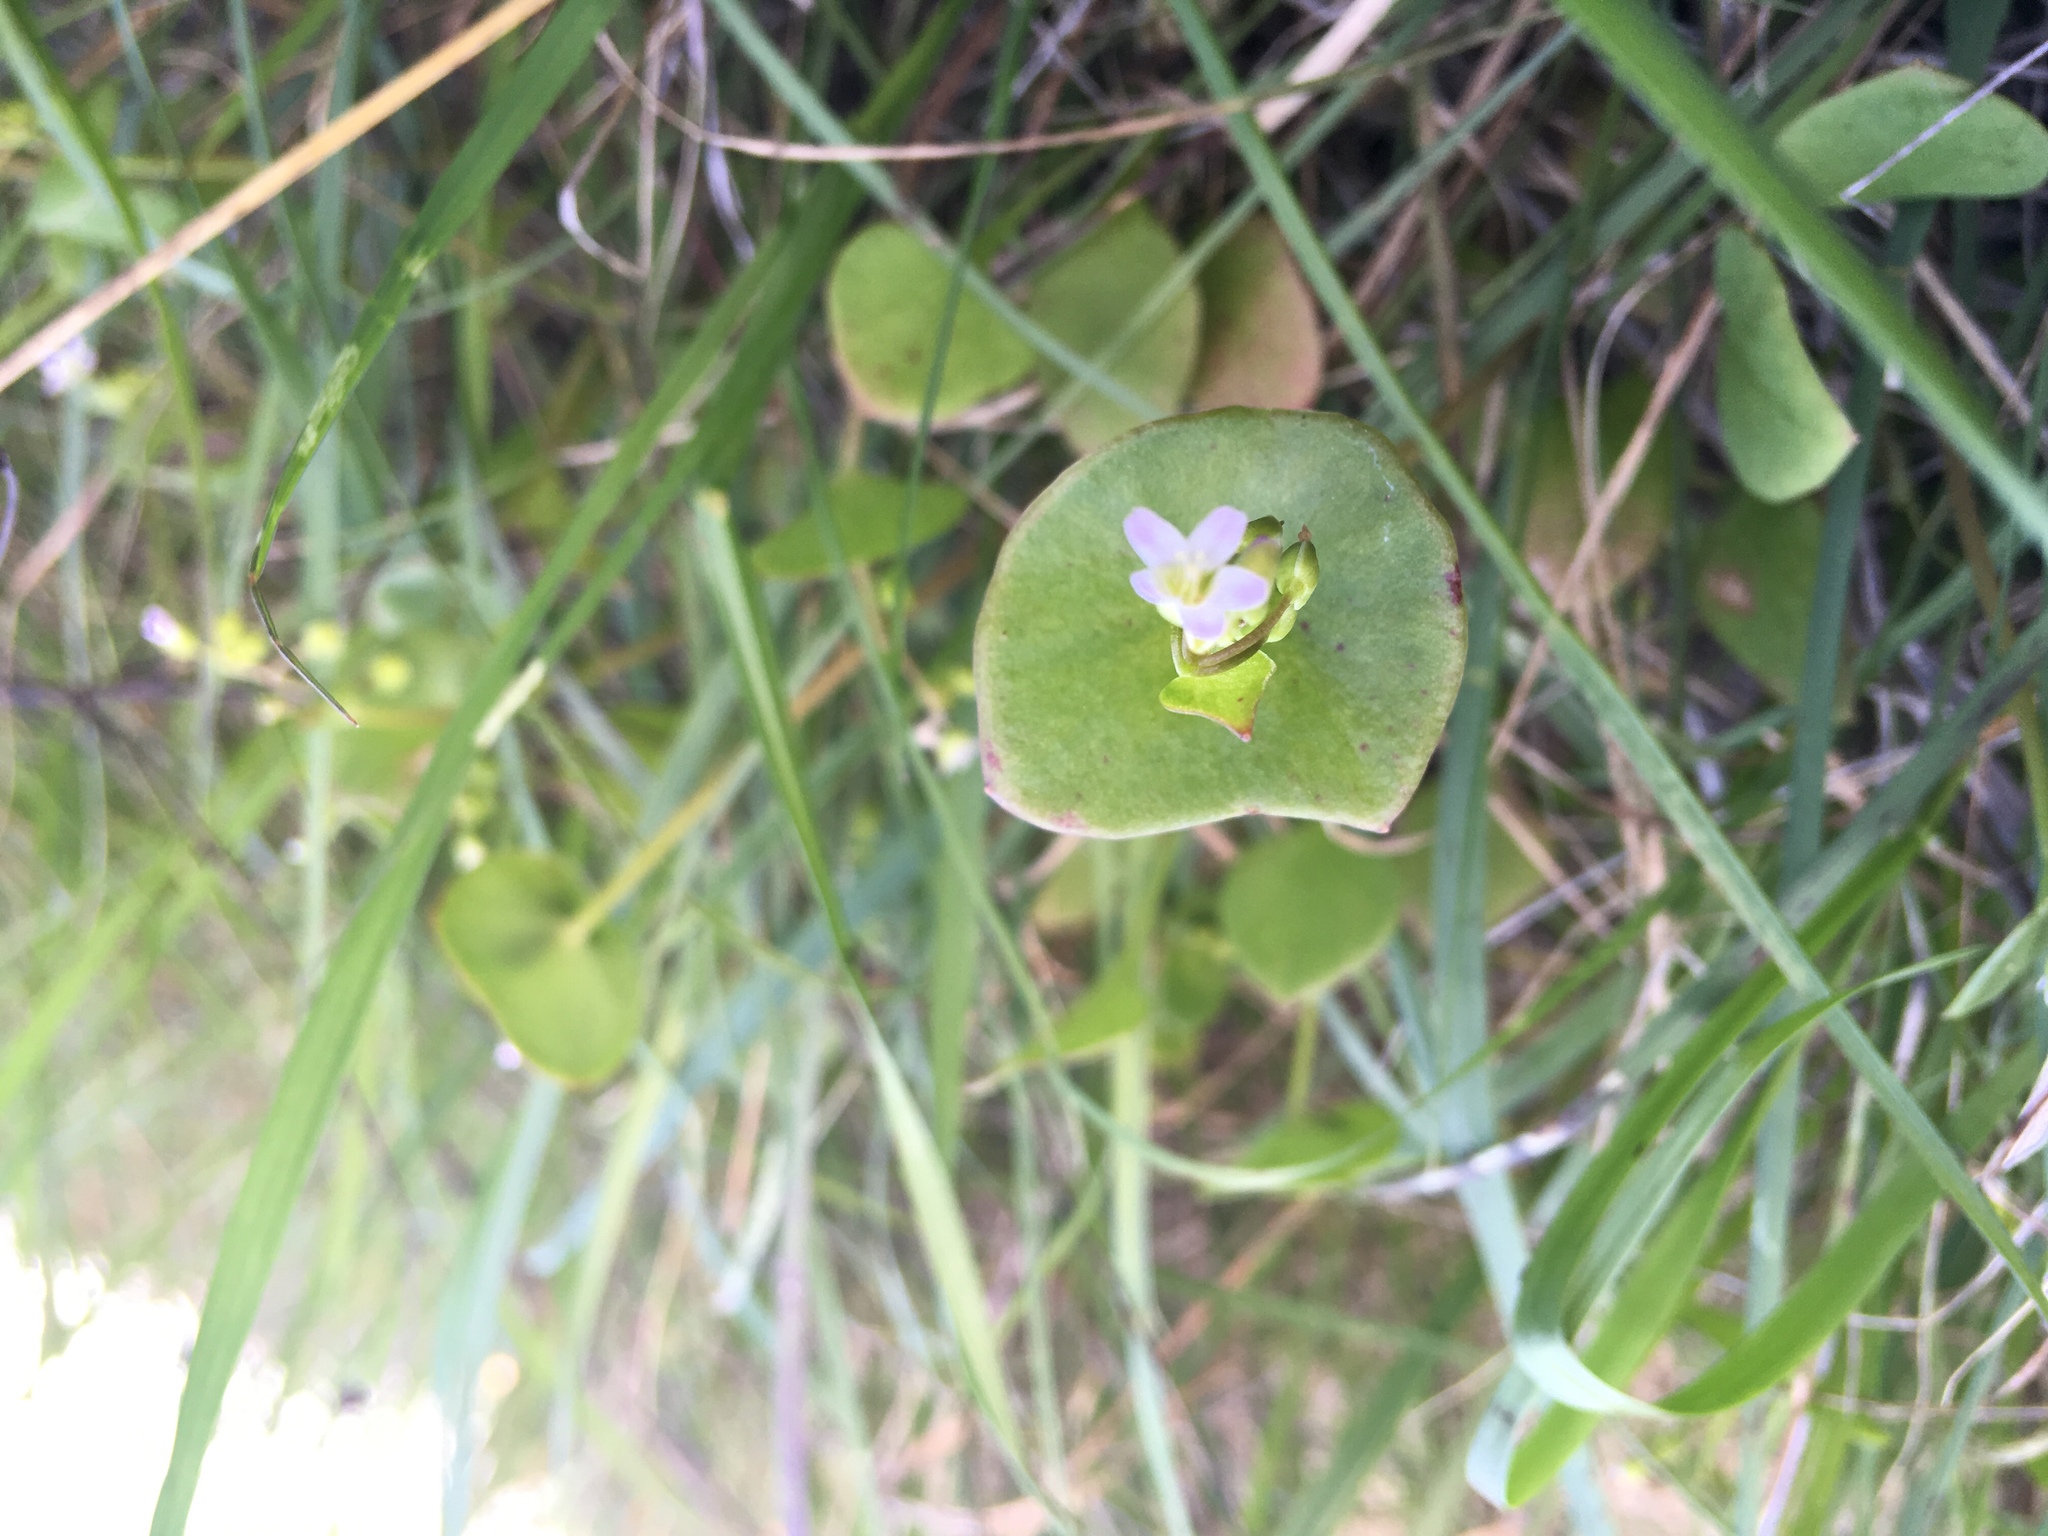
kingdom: Plantae
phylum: Tracheophyta
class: Magnoliopsida
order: Caryophyllales
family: Montiaceae
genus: Claytonia
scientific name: Claytonia perfoliata
